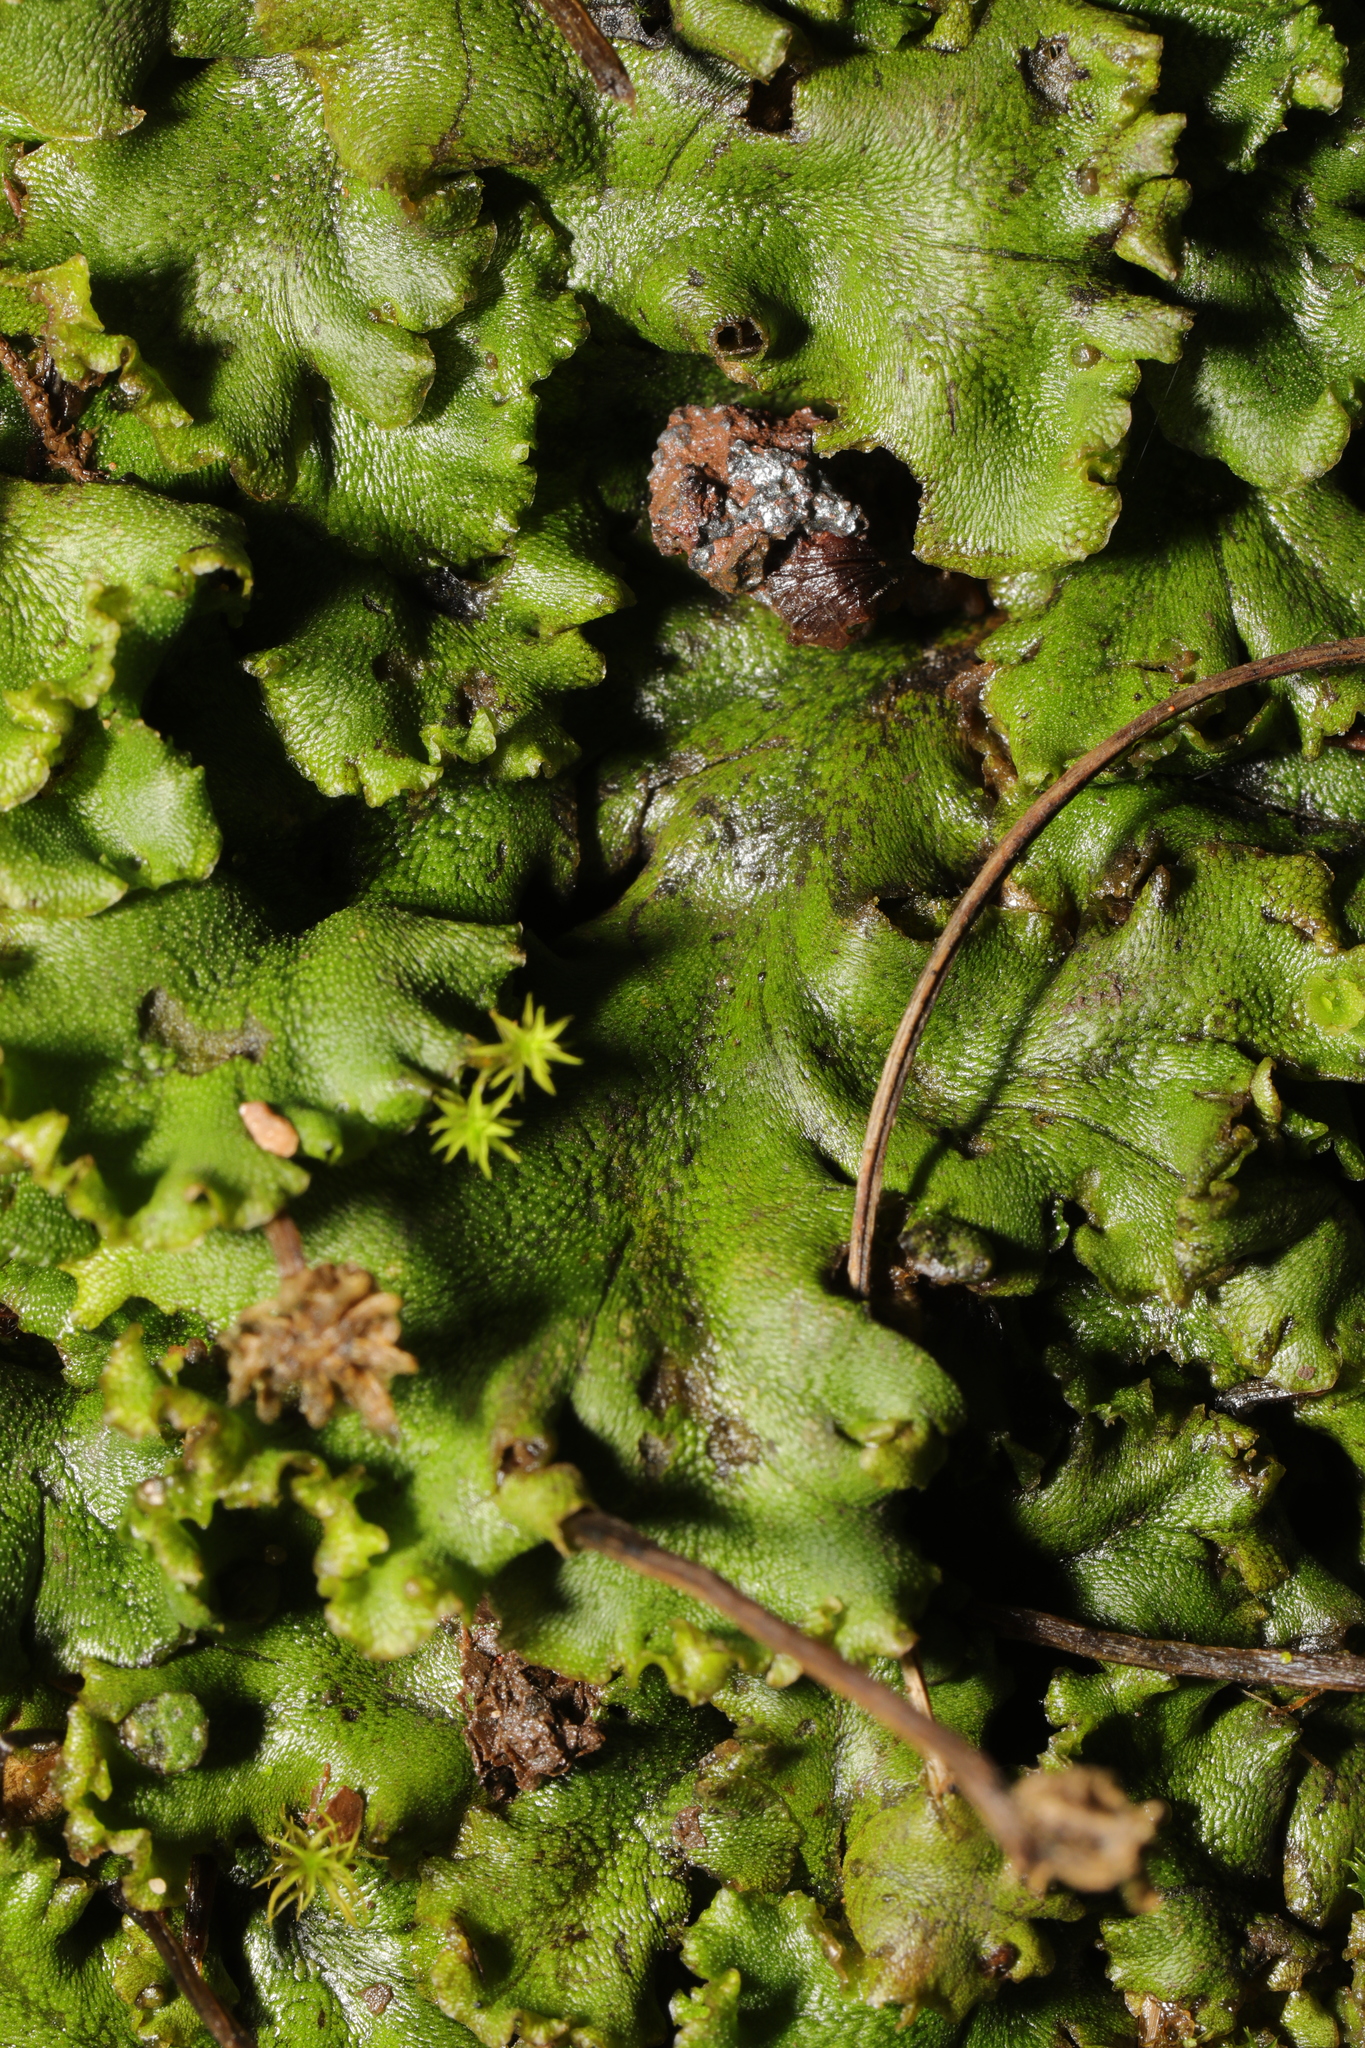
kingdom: Plantae
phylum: Marchantiophyta
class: Marchantiopsida
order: Marchantiales
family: Marchantiaceae
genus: Marchantia
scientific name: Marchantia polymorpha
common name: Common liverwort
